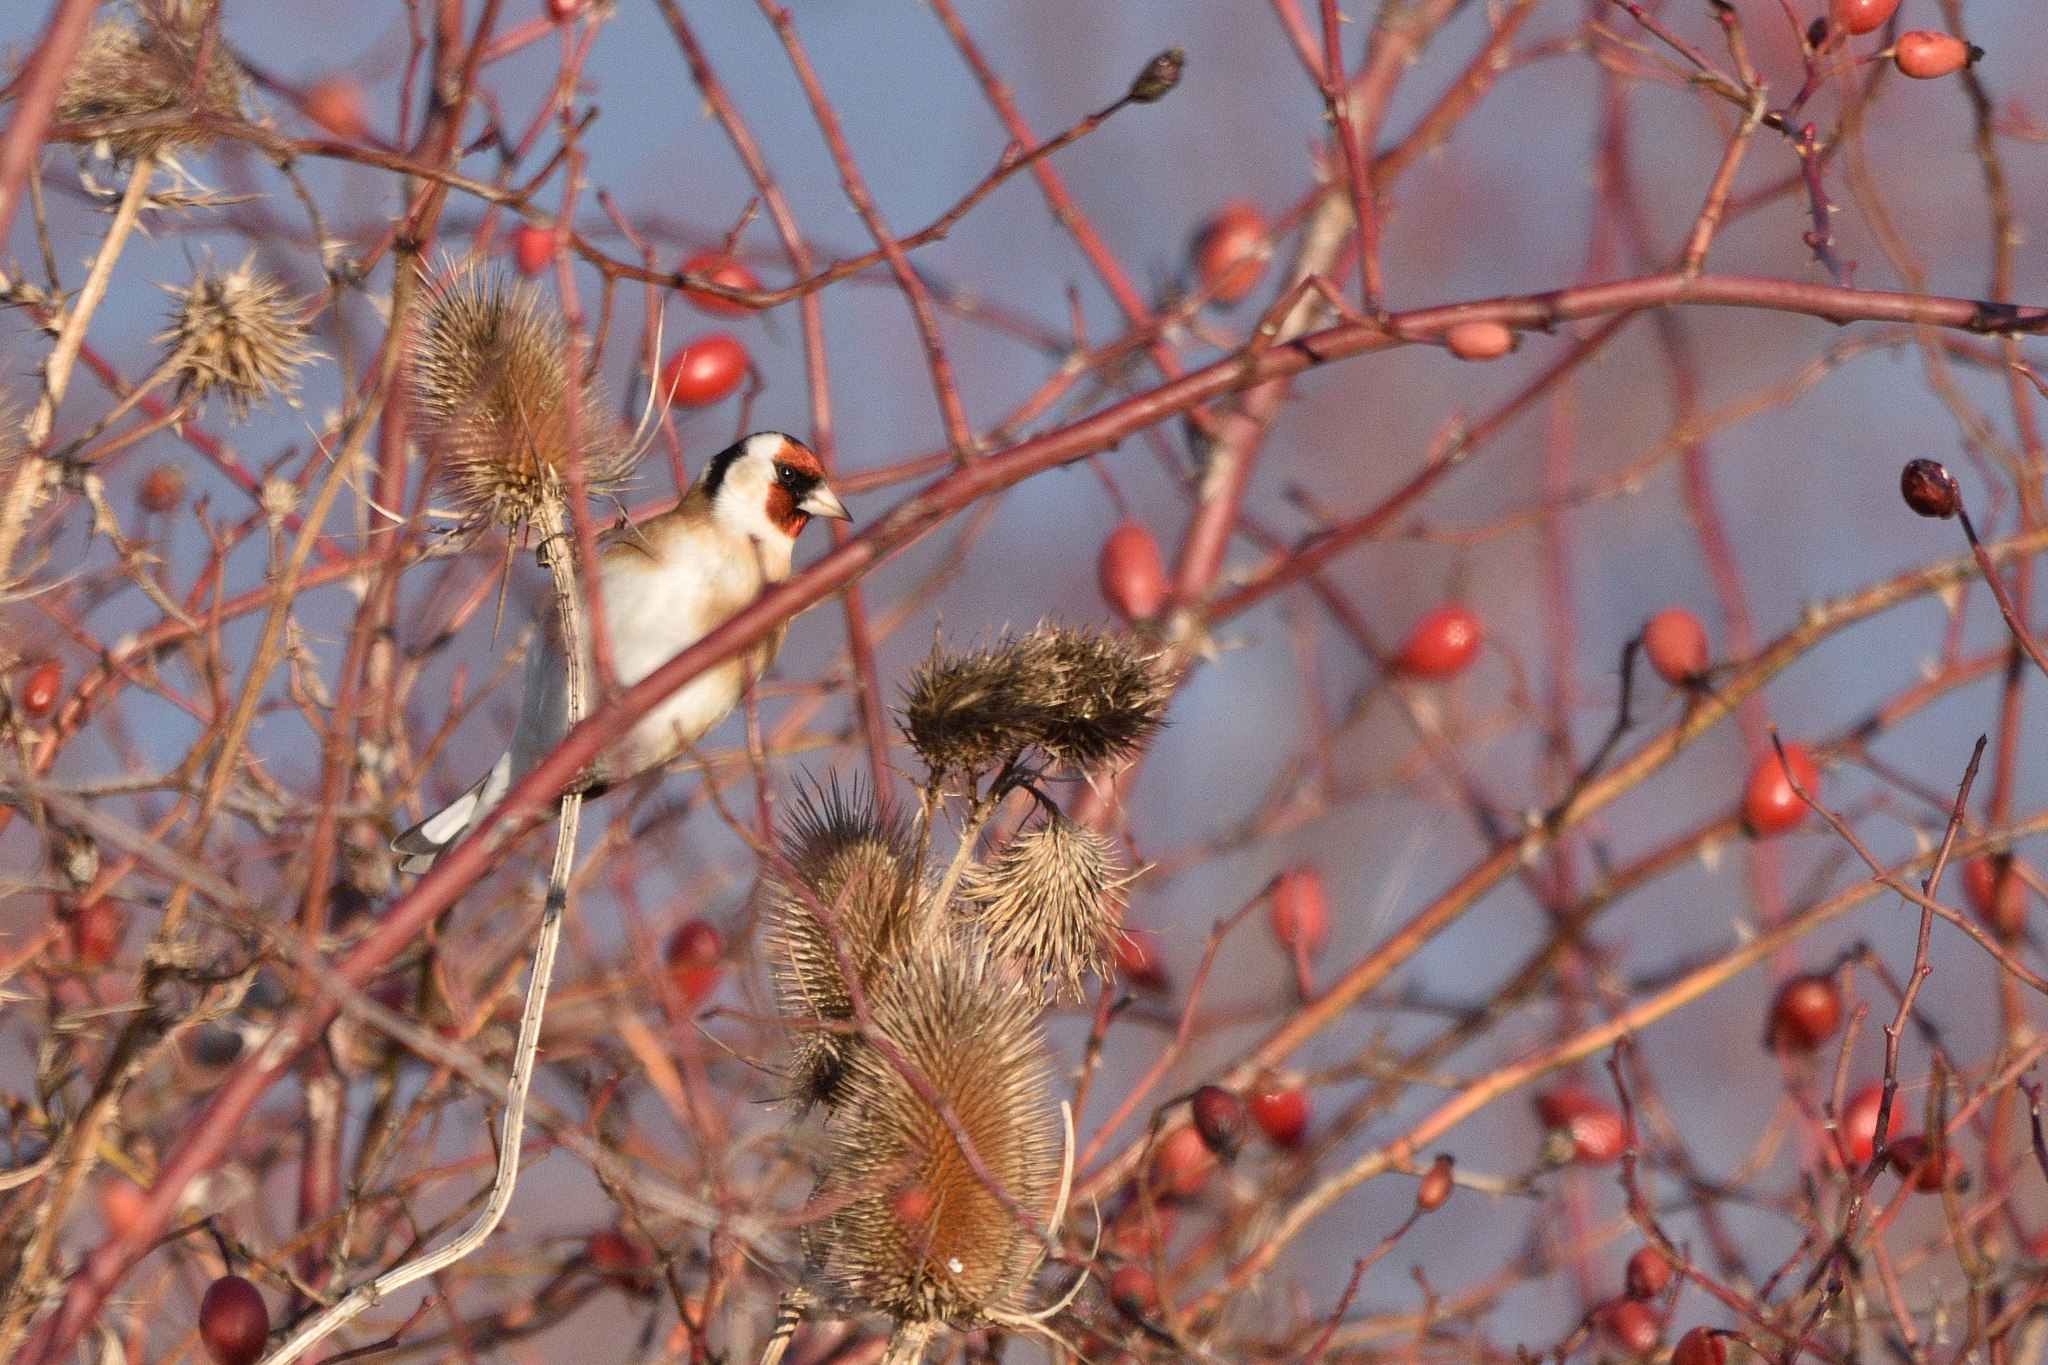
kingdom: Animalia
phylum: Chordata
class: Aves
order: Passeriformes
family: Fringillidae
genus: Carduelis
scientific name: Carduelis carduelis
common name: European goldfinch
